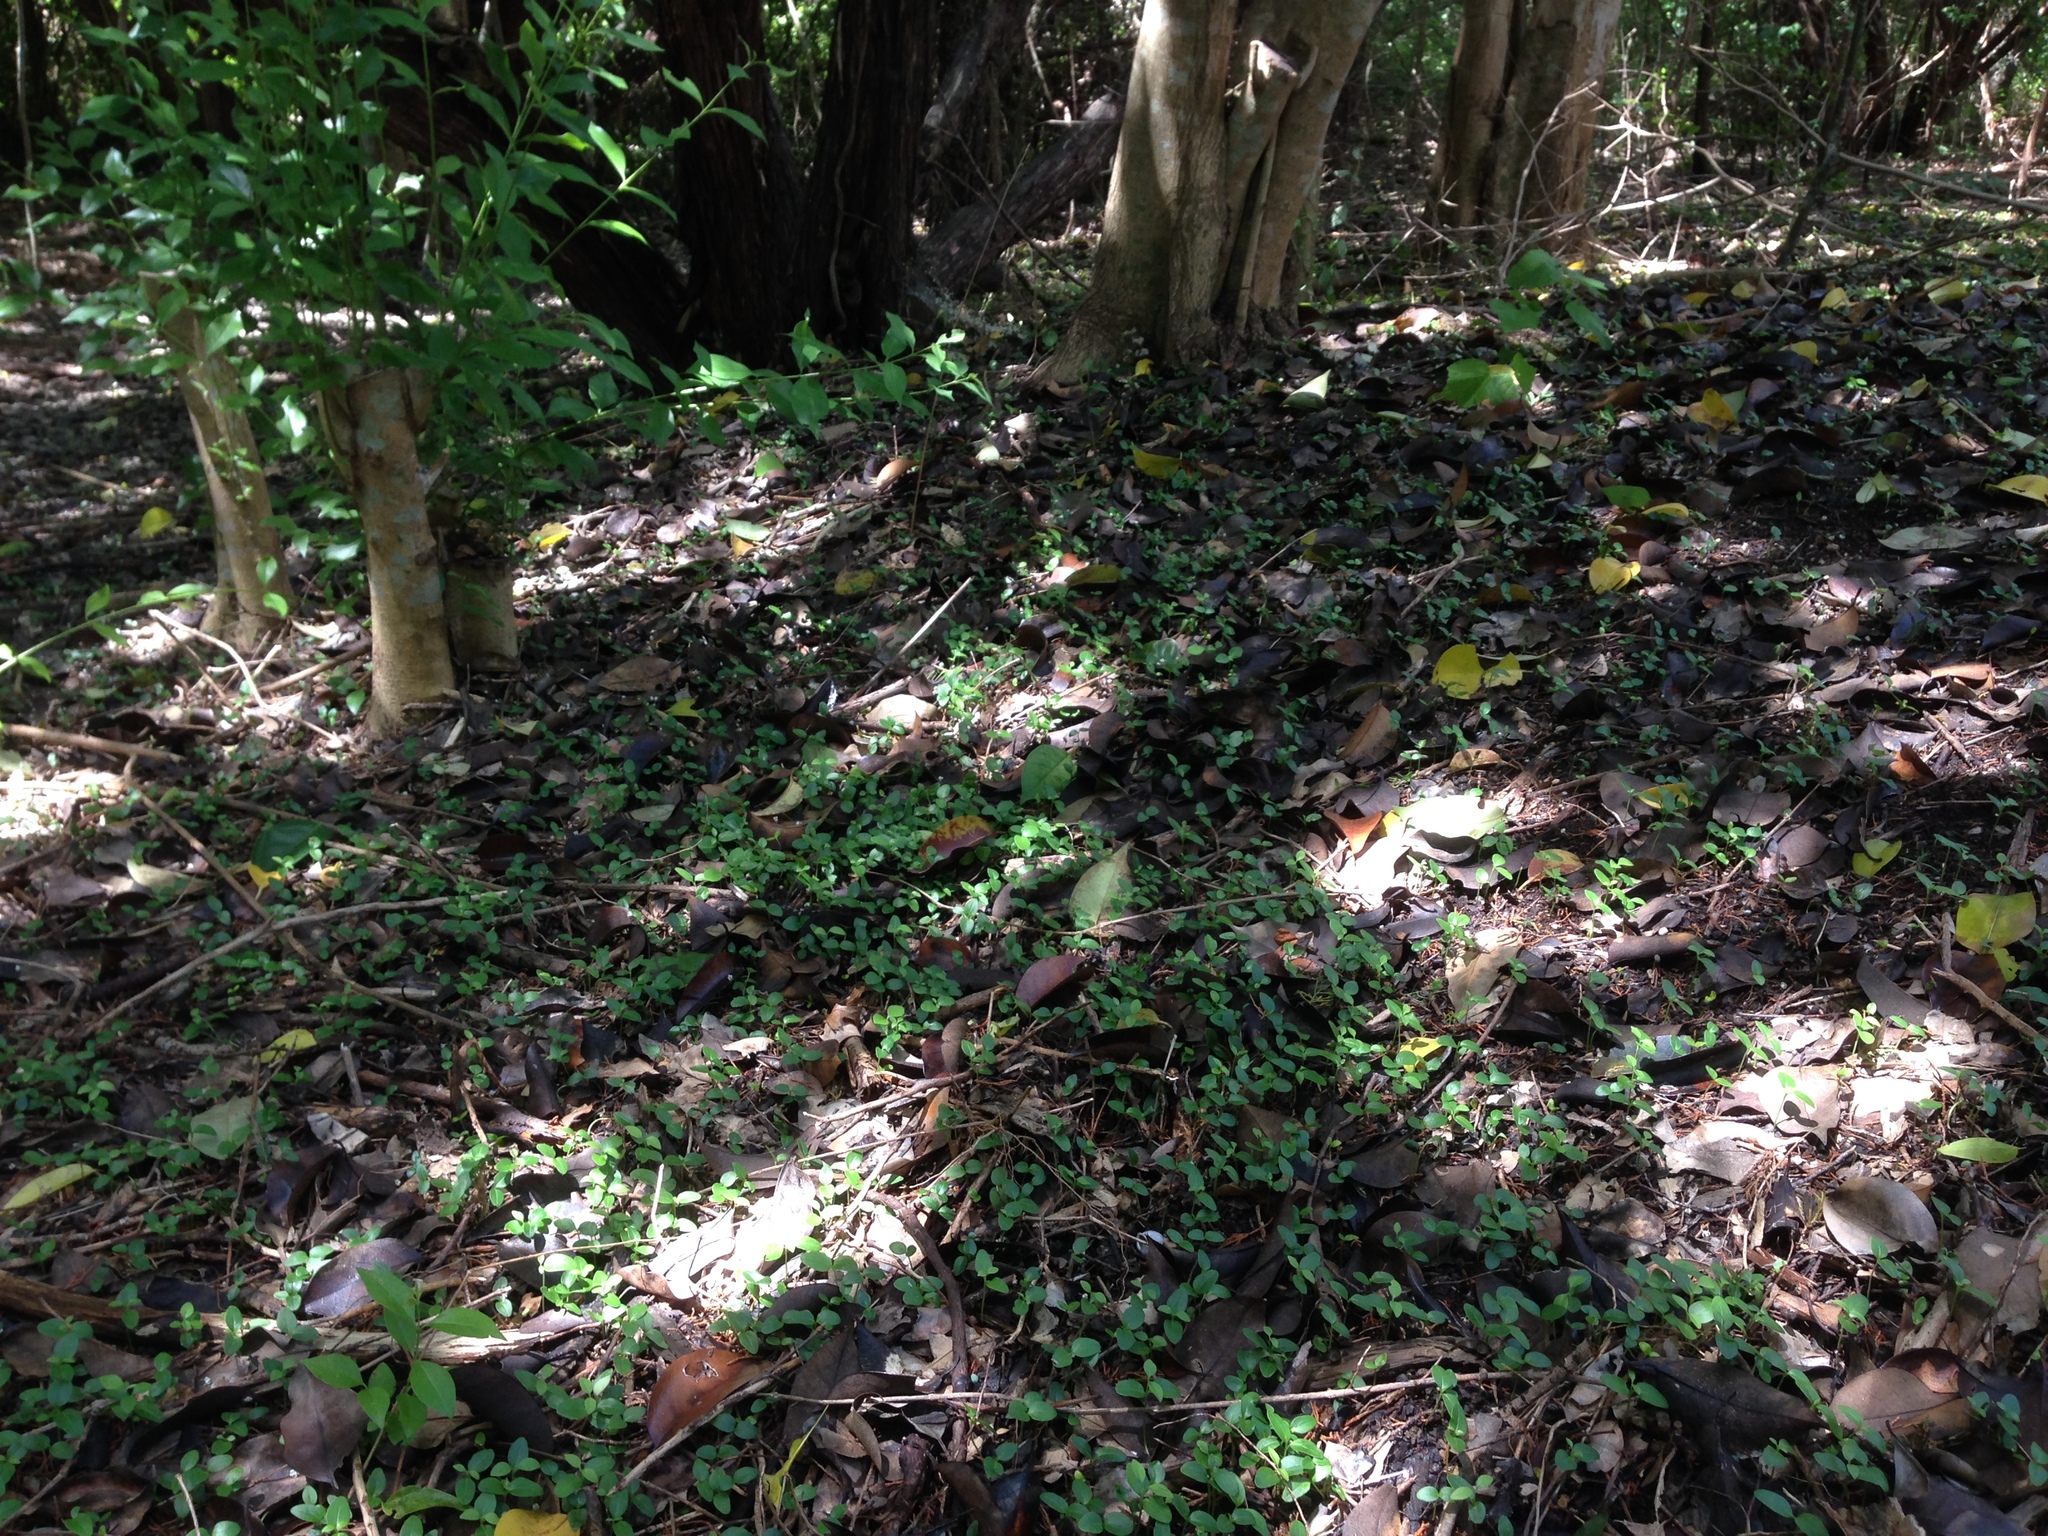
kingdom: Plantae
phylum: Tracheophyta
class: Magnoliopsida
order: Lamiales
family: Oleaceae
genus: Ligustrum
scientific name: Ligustrum lucidum
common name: Glossy privet
